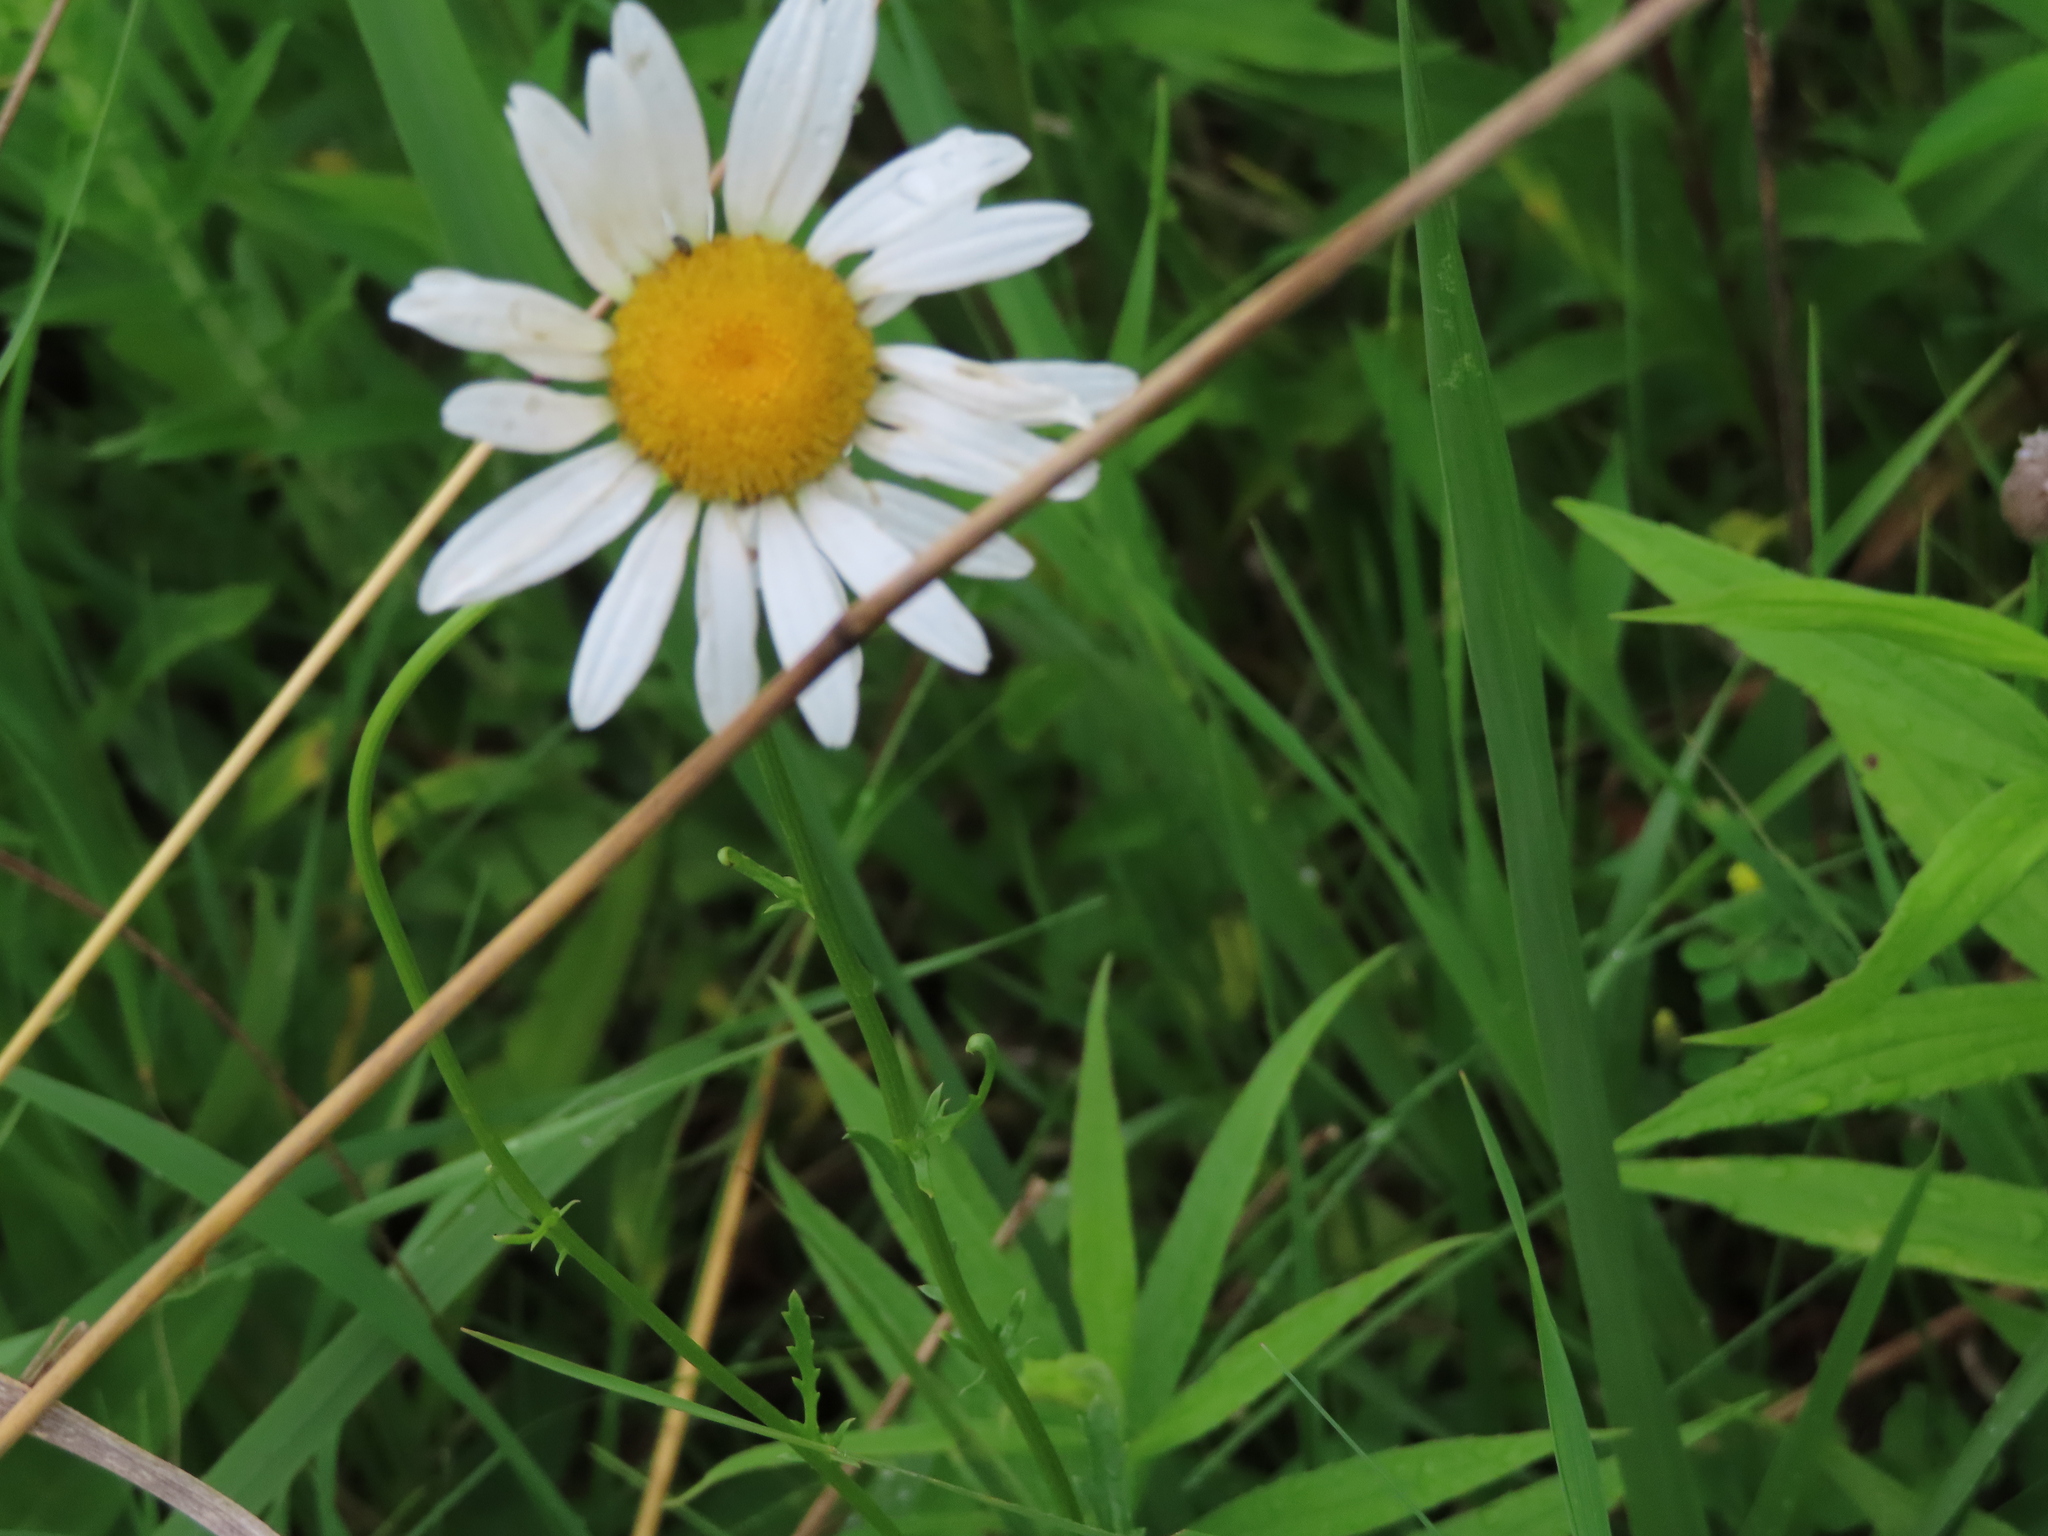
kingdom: Plantae
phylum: Tracheophyta
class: Magnoliopsida
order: Asterales
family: Asteraceae
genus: Leucanthemum
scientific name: Leucanthemum vulgare
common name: Oxeye daisy
